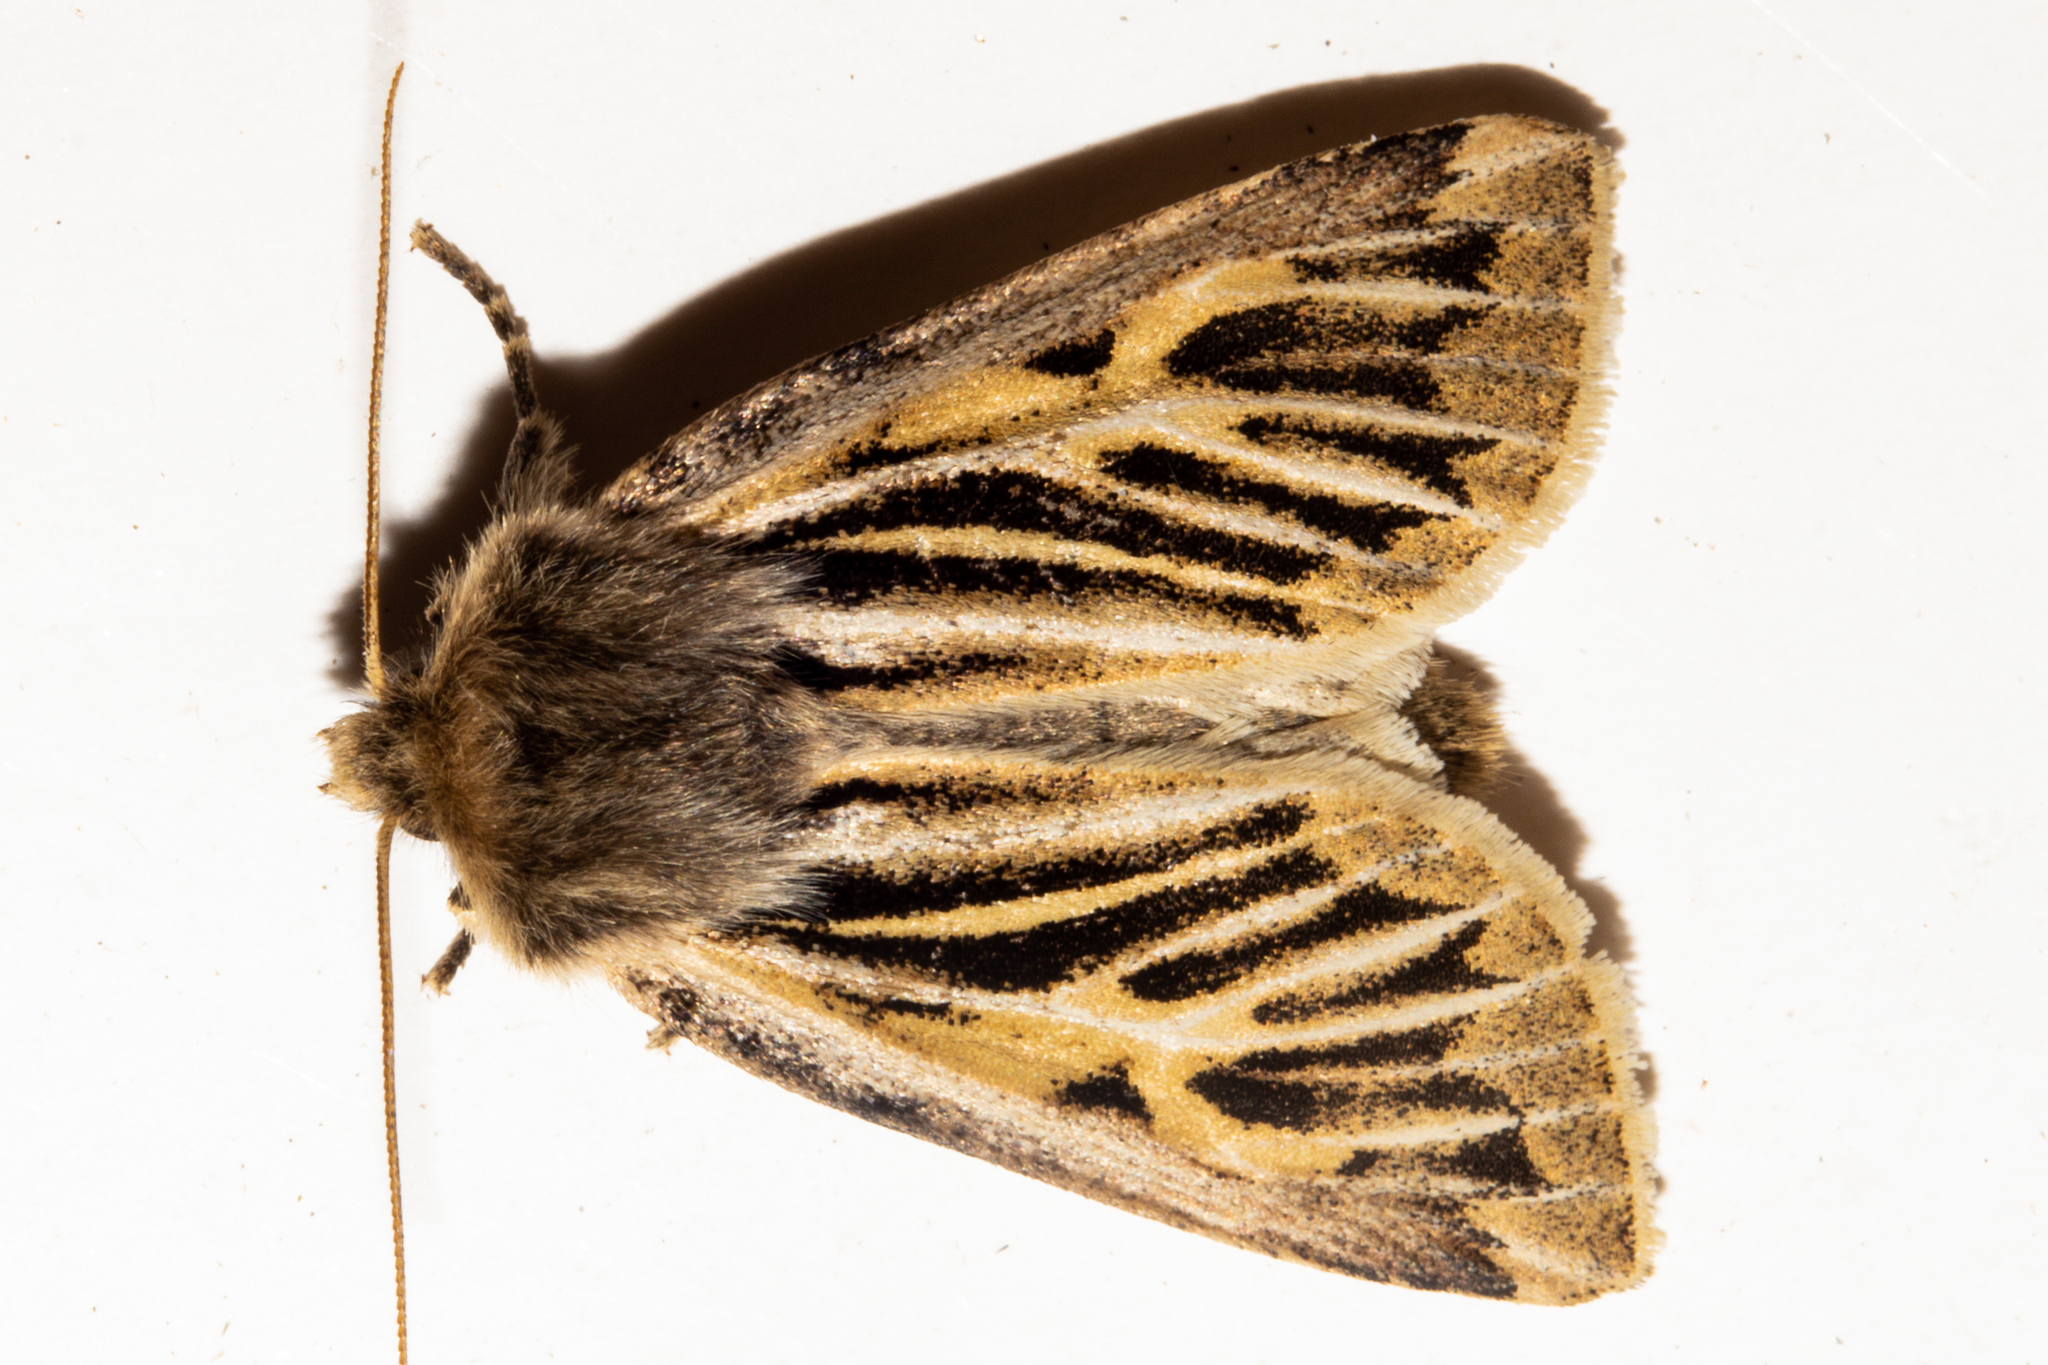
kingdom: Animalia
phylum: Arthropoda
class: Insecta
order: Lepidoptera
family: Noctuidae
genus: Ichneutica
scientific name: Ichneutica dione
